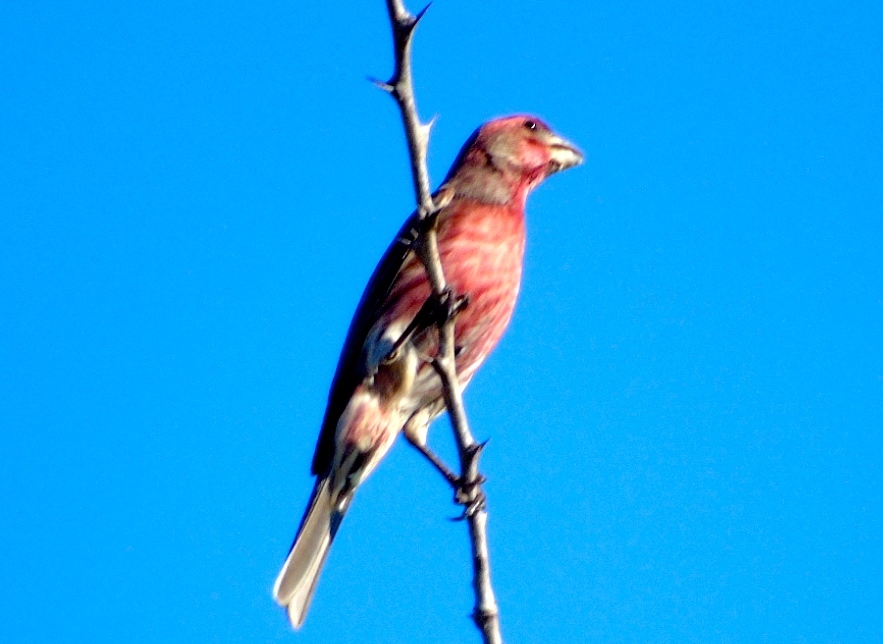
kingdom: Animalia
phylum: Chordata
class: Aves
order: Passeriformes
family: Fringillidae
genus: Haemorhous
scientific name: Haemorhous mexicanus
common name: House finch
